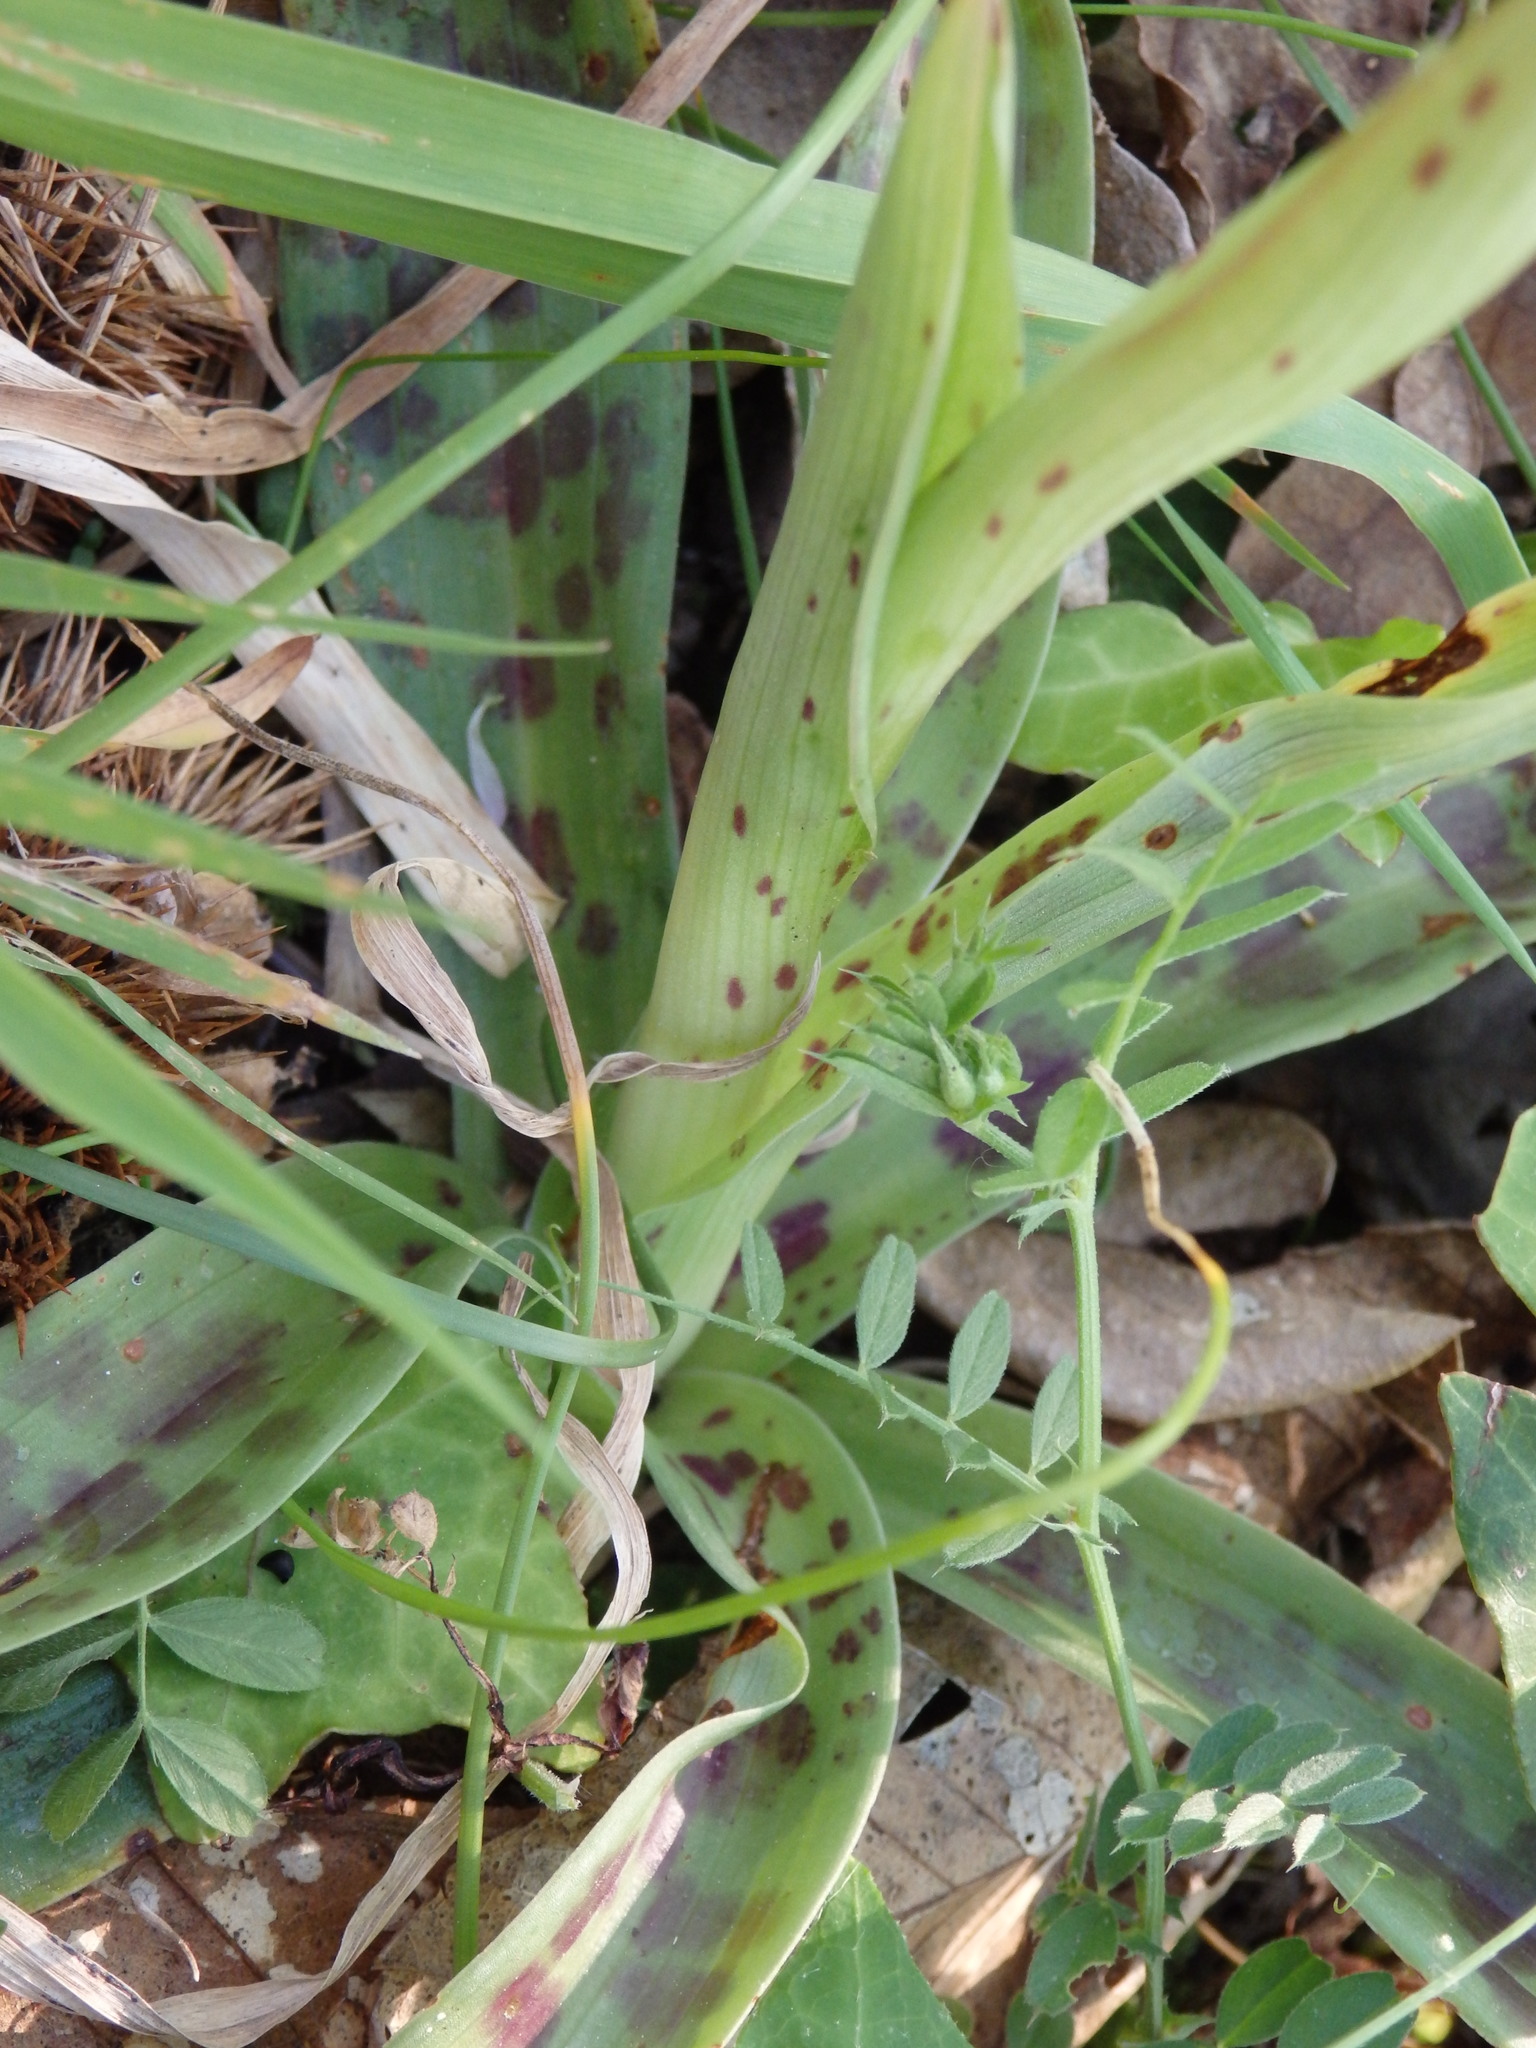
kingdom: Plantae
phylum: Tracheophyta
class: Liliopsida
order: Asparagales
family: Orchidaceae
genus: Orchis
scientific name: Orchis mascula
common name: Early-purple orchid
